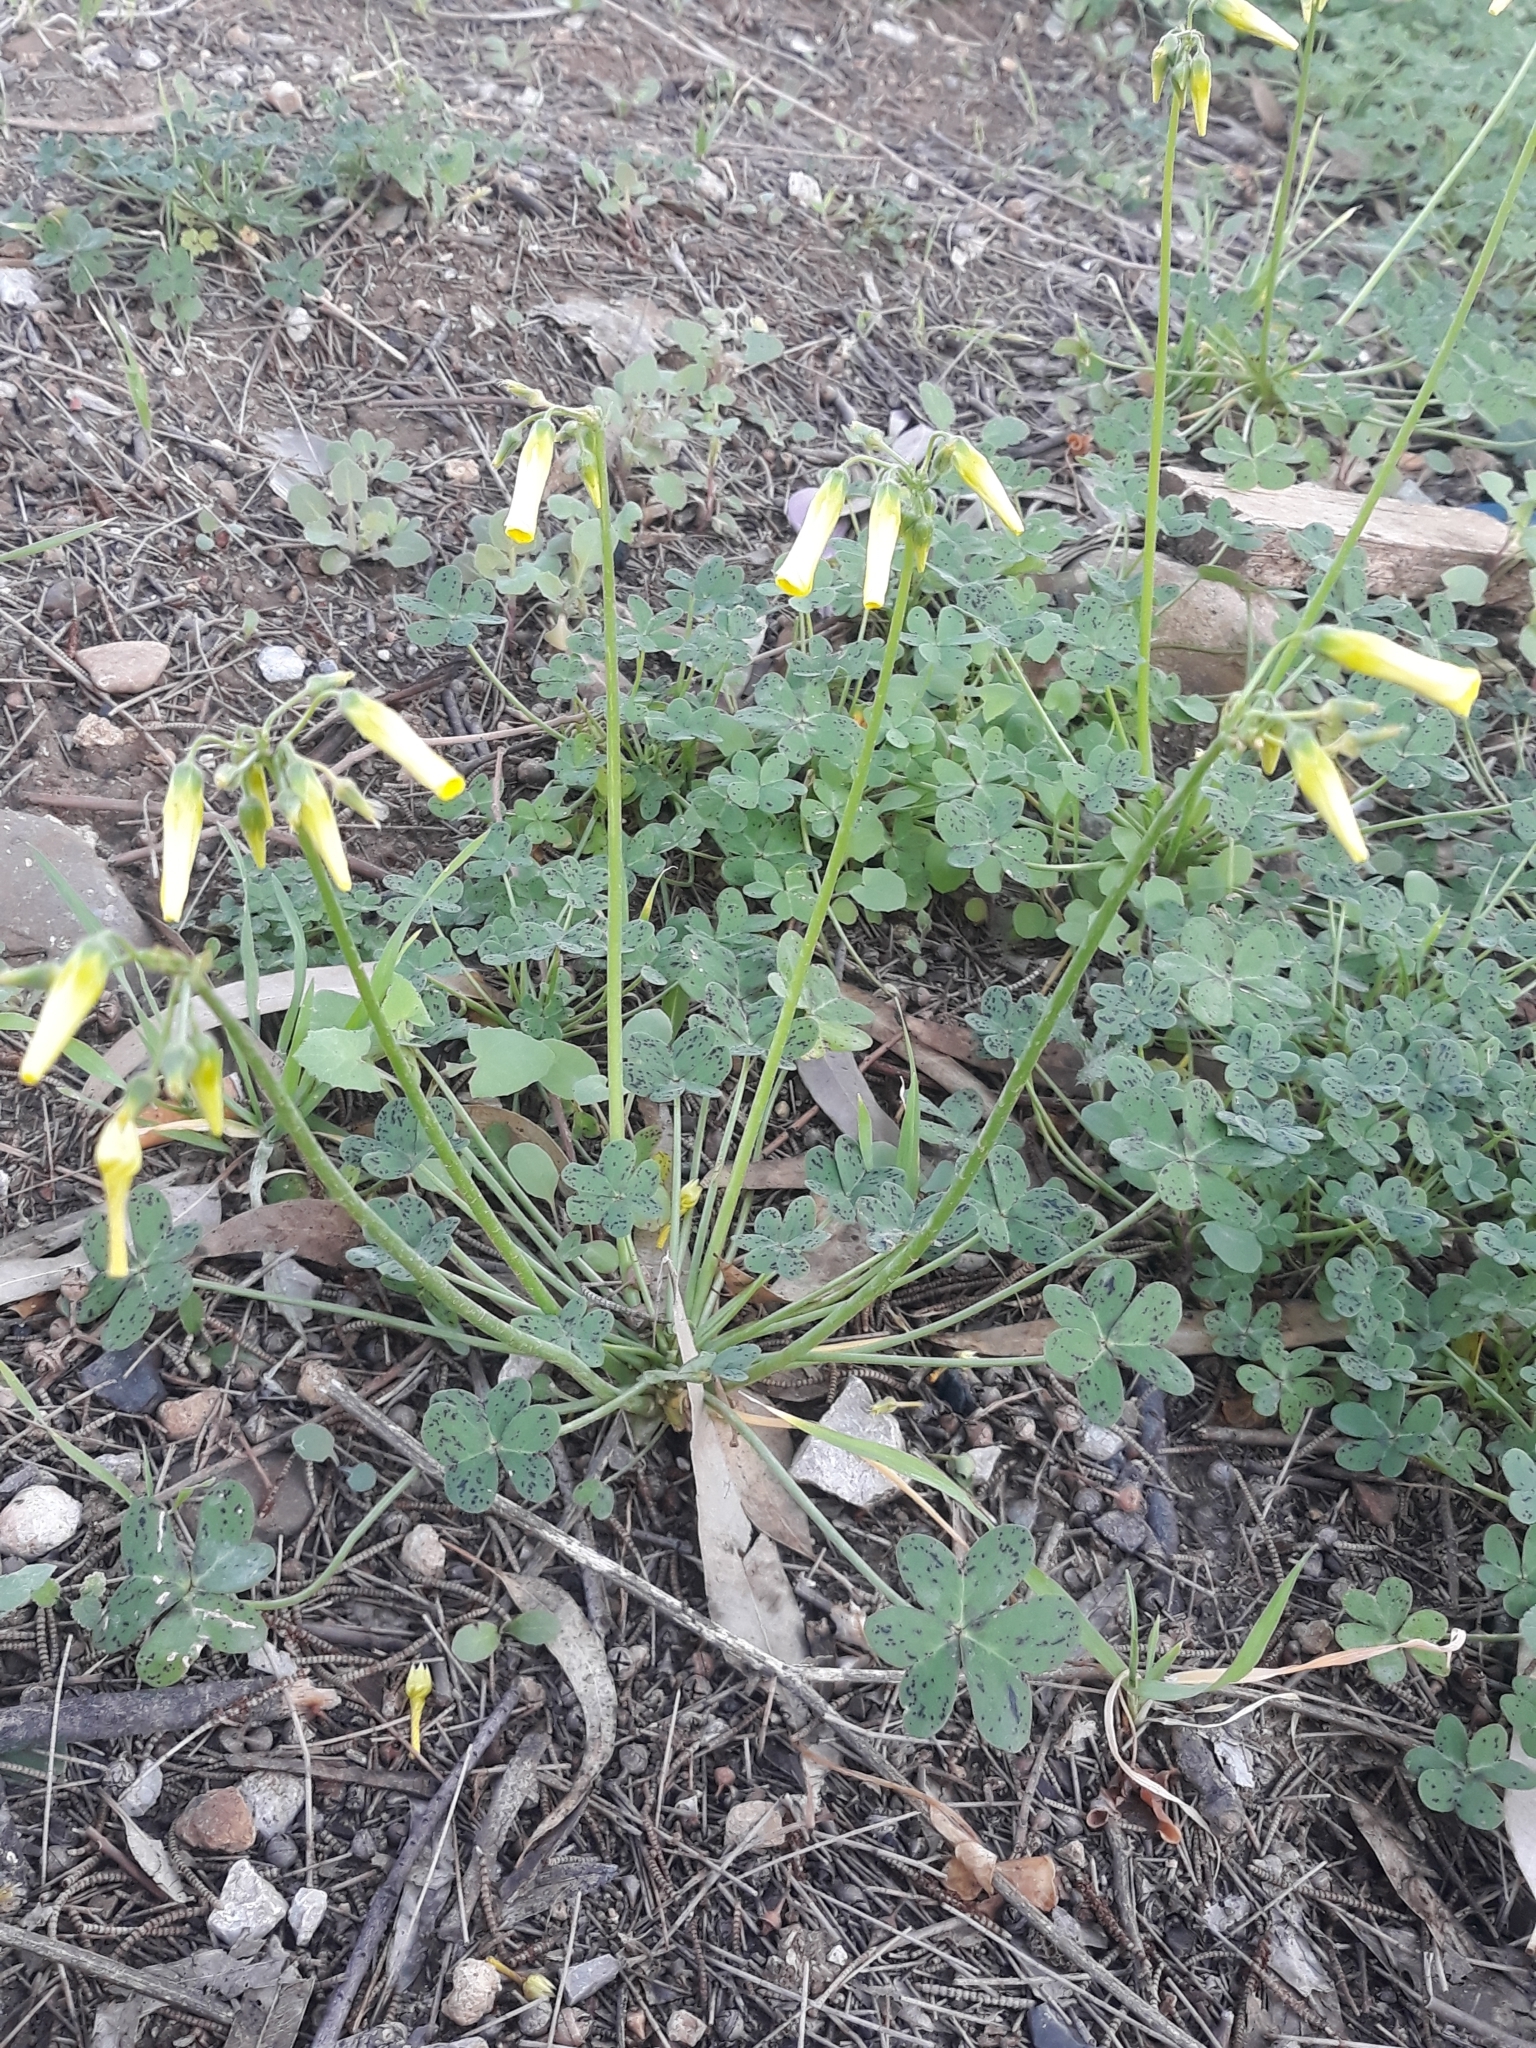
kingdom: Plantae
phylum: Tracheophyta
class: Magnoliopsida
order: Oxalidales
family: Oxalidaceae
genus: Oxalis
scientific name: Oxalis pes-caprae
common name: Bermuda-buttercup
